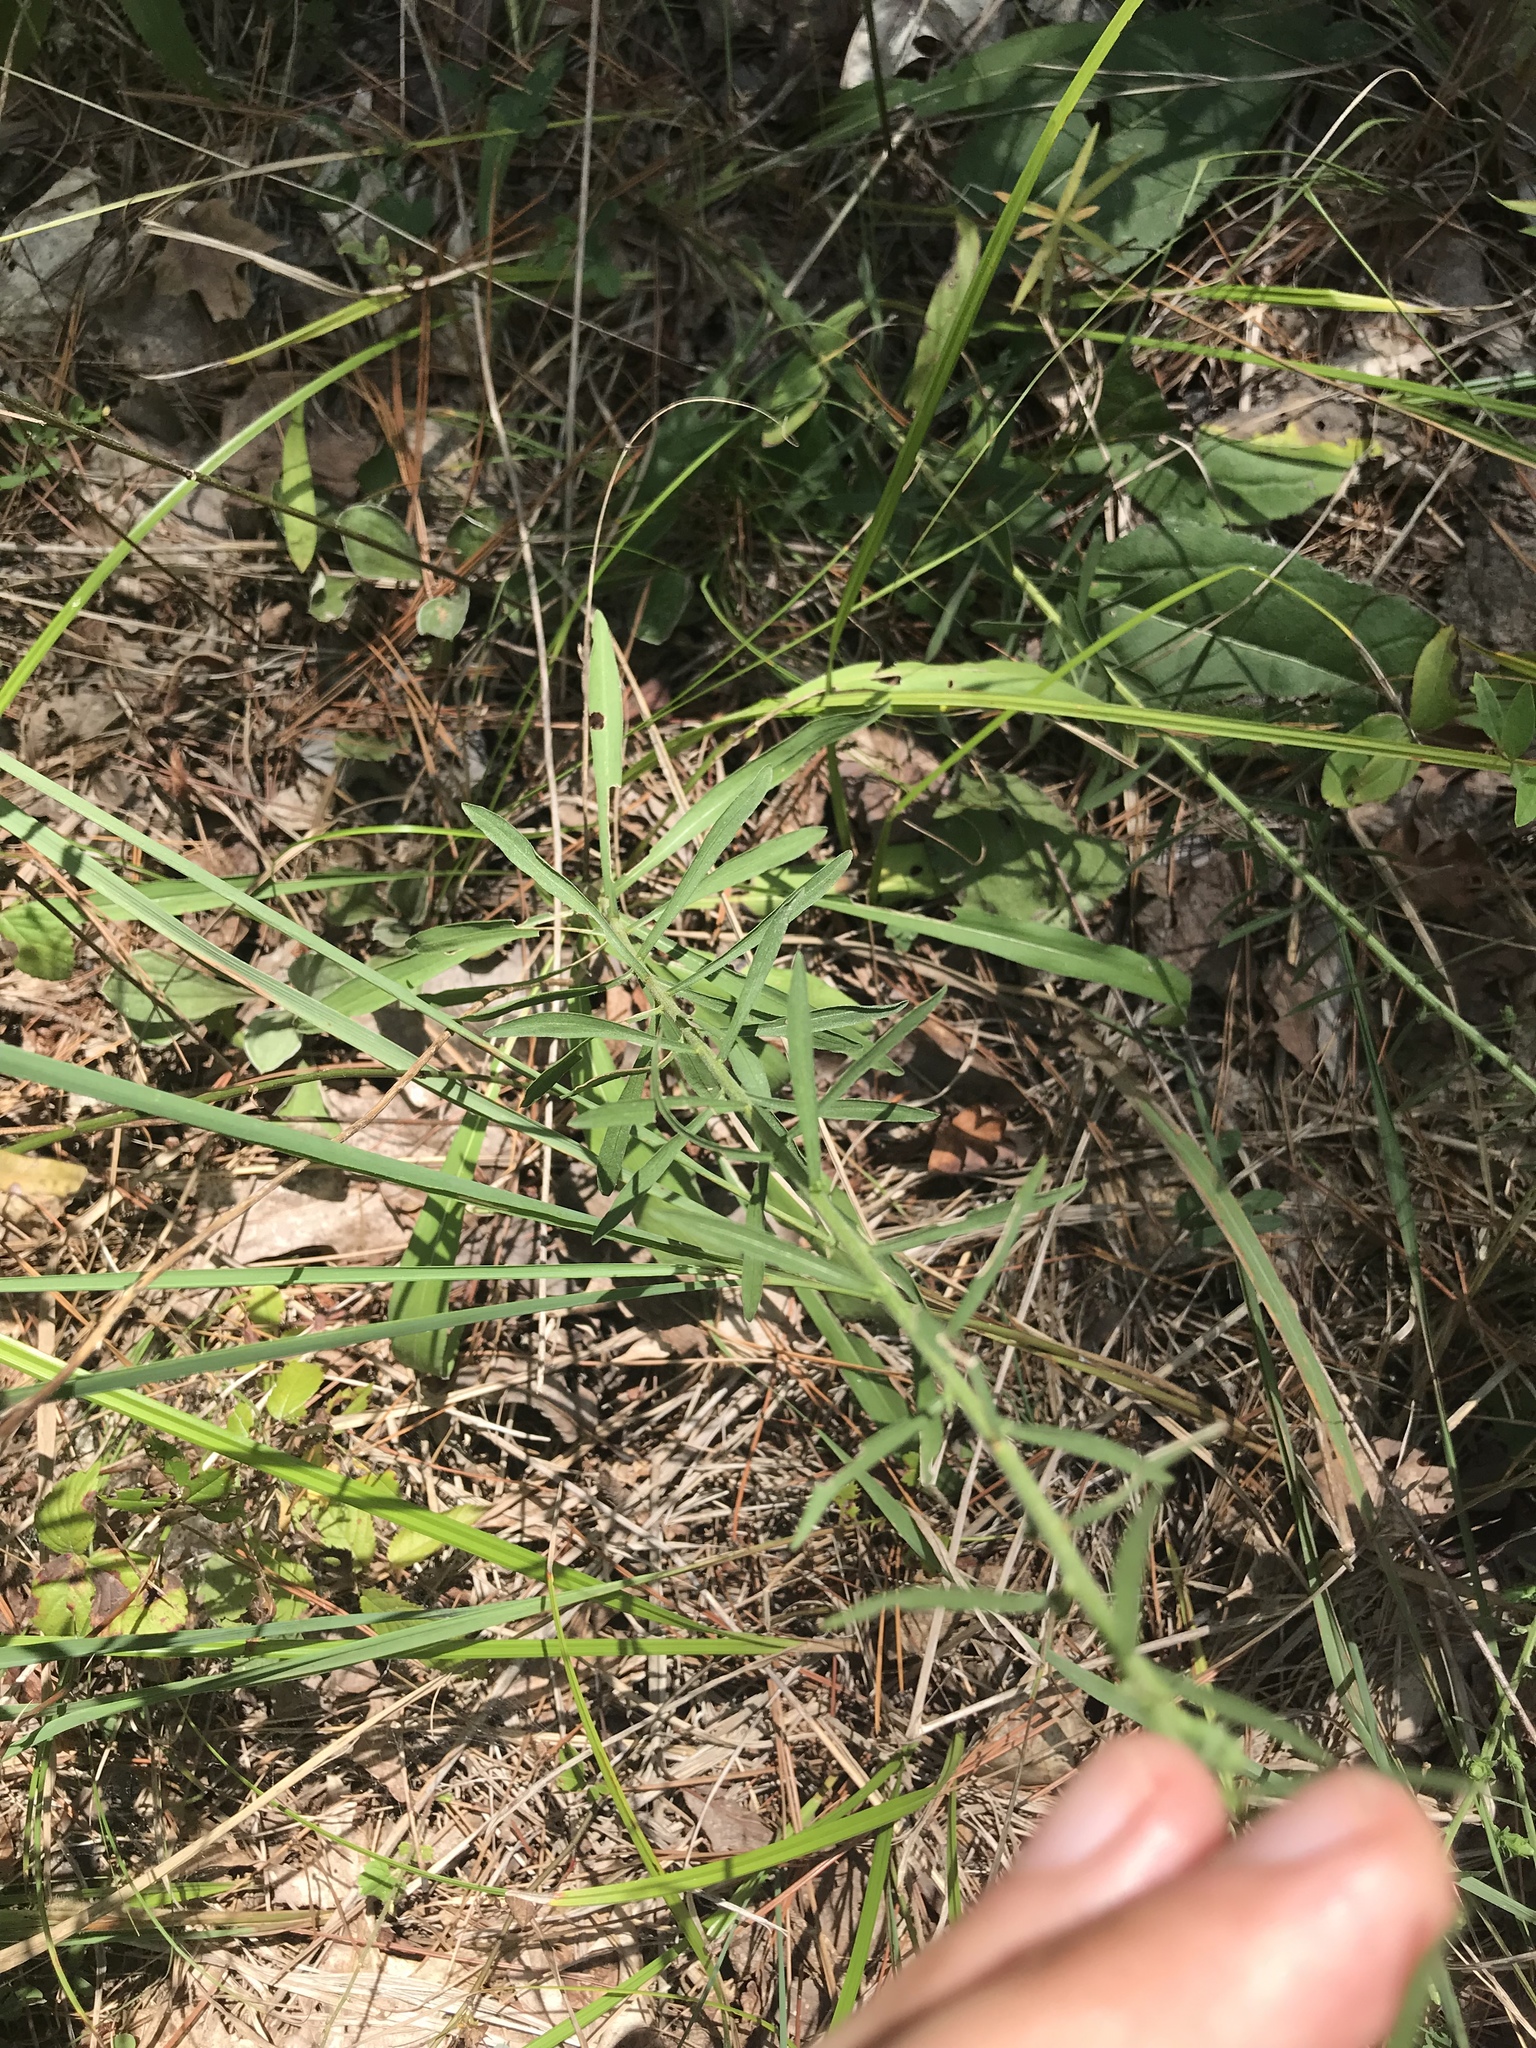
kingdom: Plantae
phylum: Tracheophyta
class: Magnoliopsida
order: Asterales
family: Asteraceae
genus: Liatris
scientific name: Liatris squarrulosa
